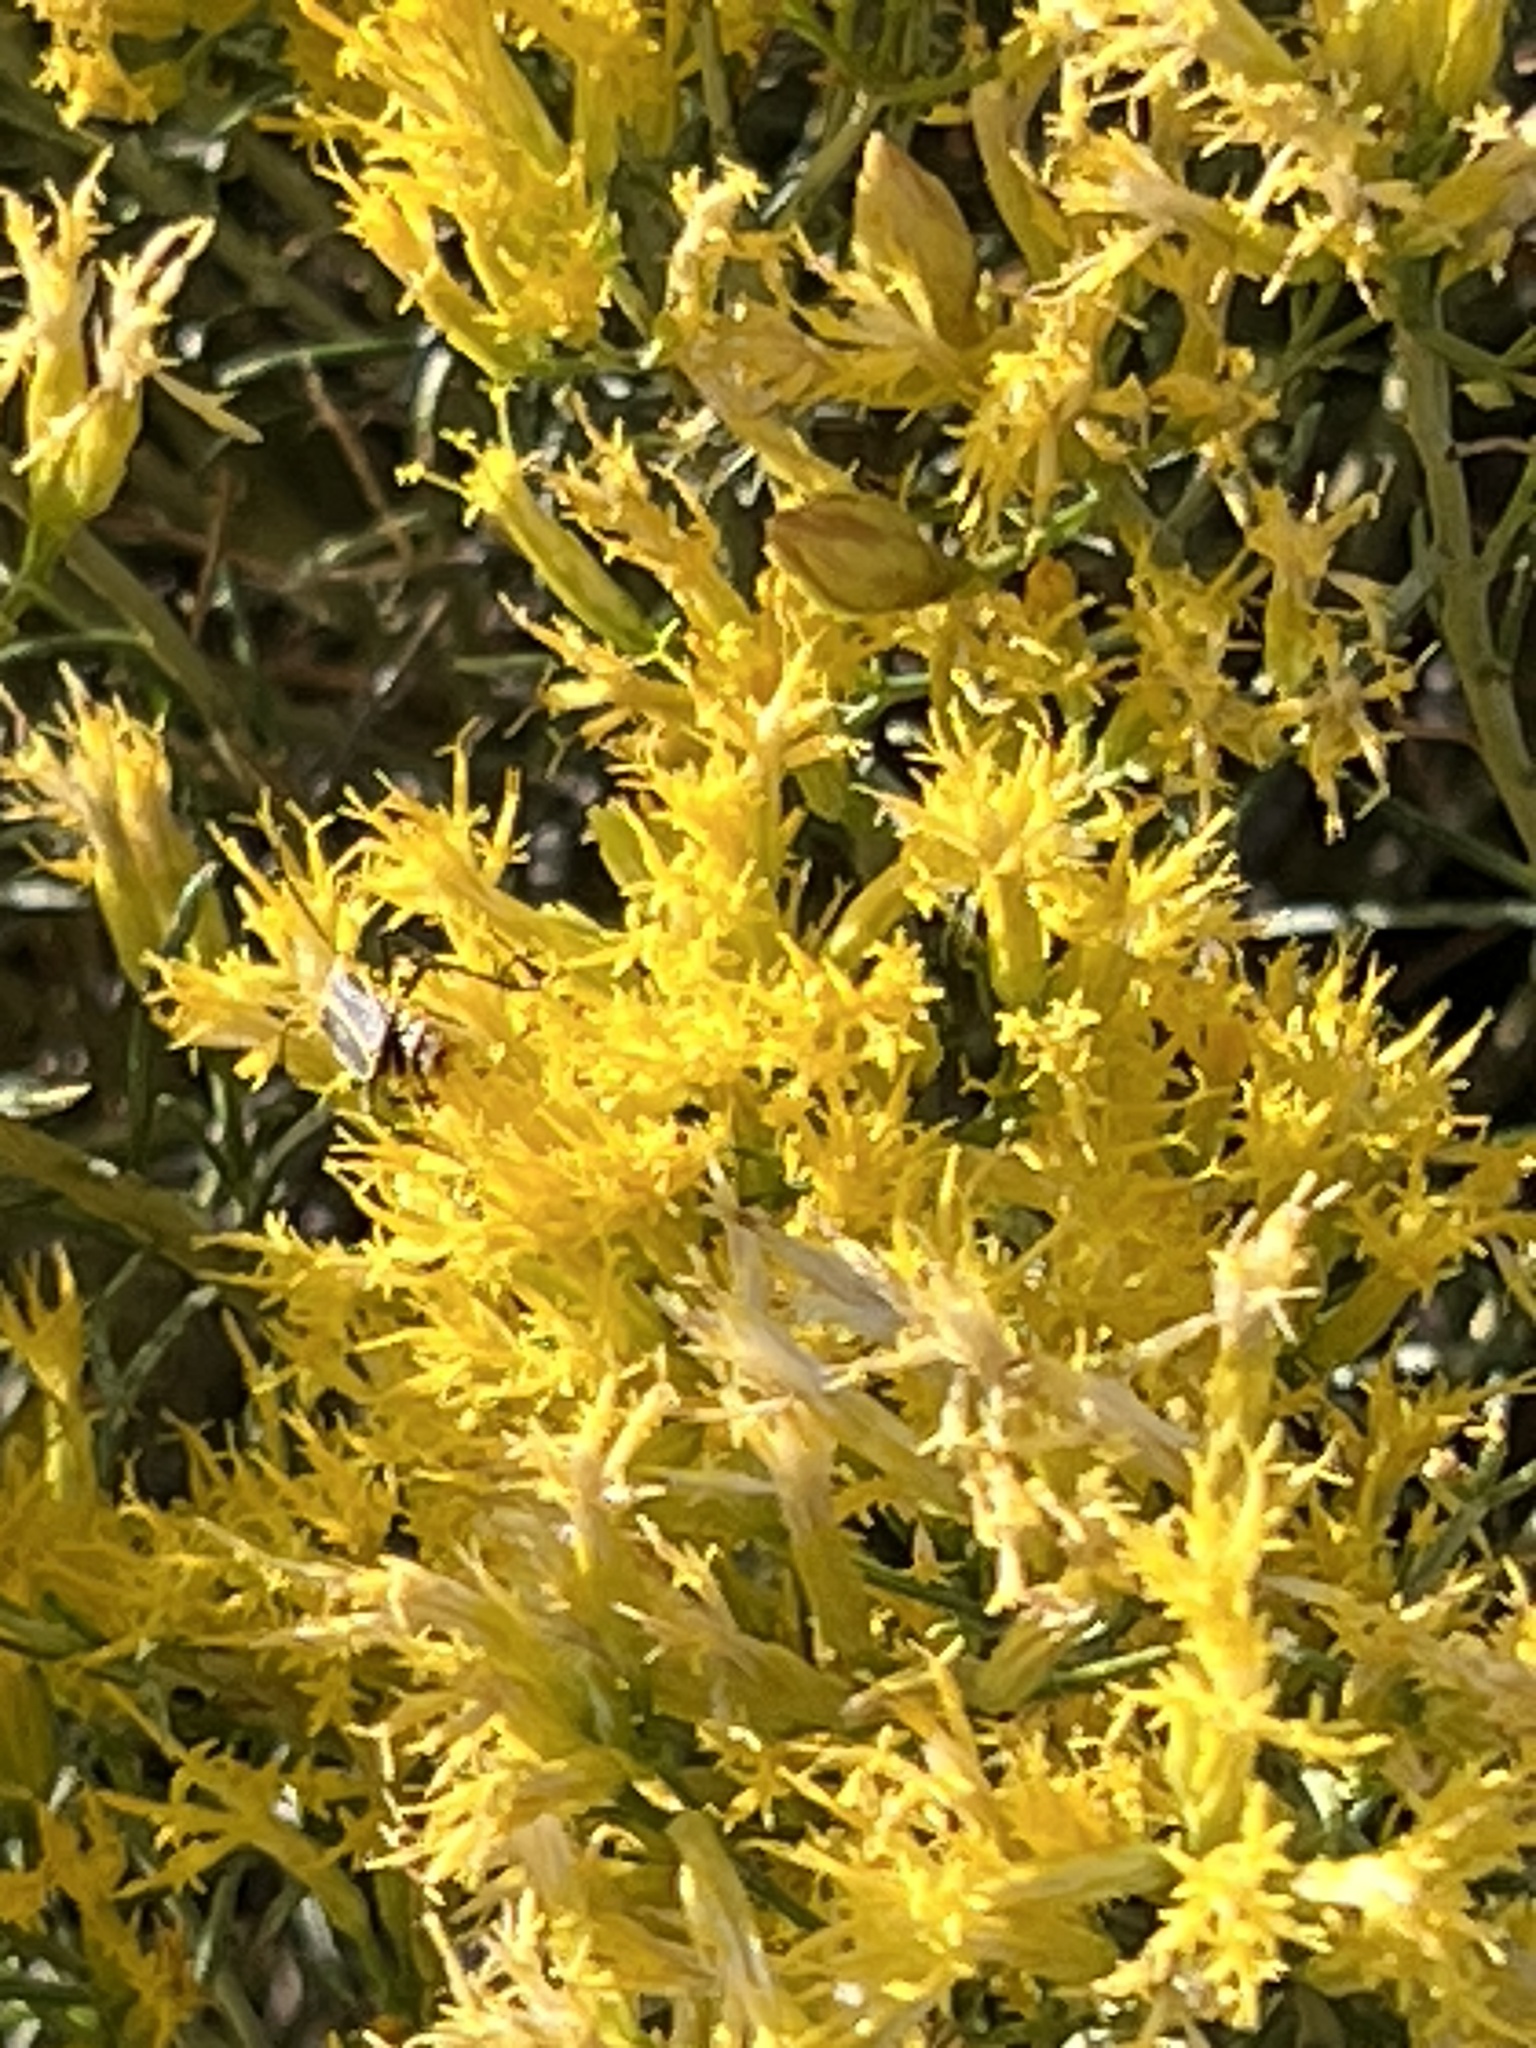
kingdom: Plantae
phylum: Tracheophyta
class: Magnoliopsida
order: Asterales
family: Asteraceae
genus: Ericameria
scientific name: Ericameria nauseosa
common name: Rubber rabbitbrush
